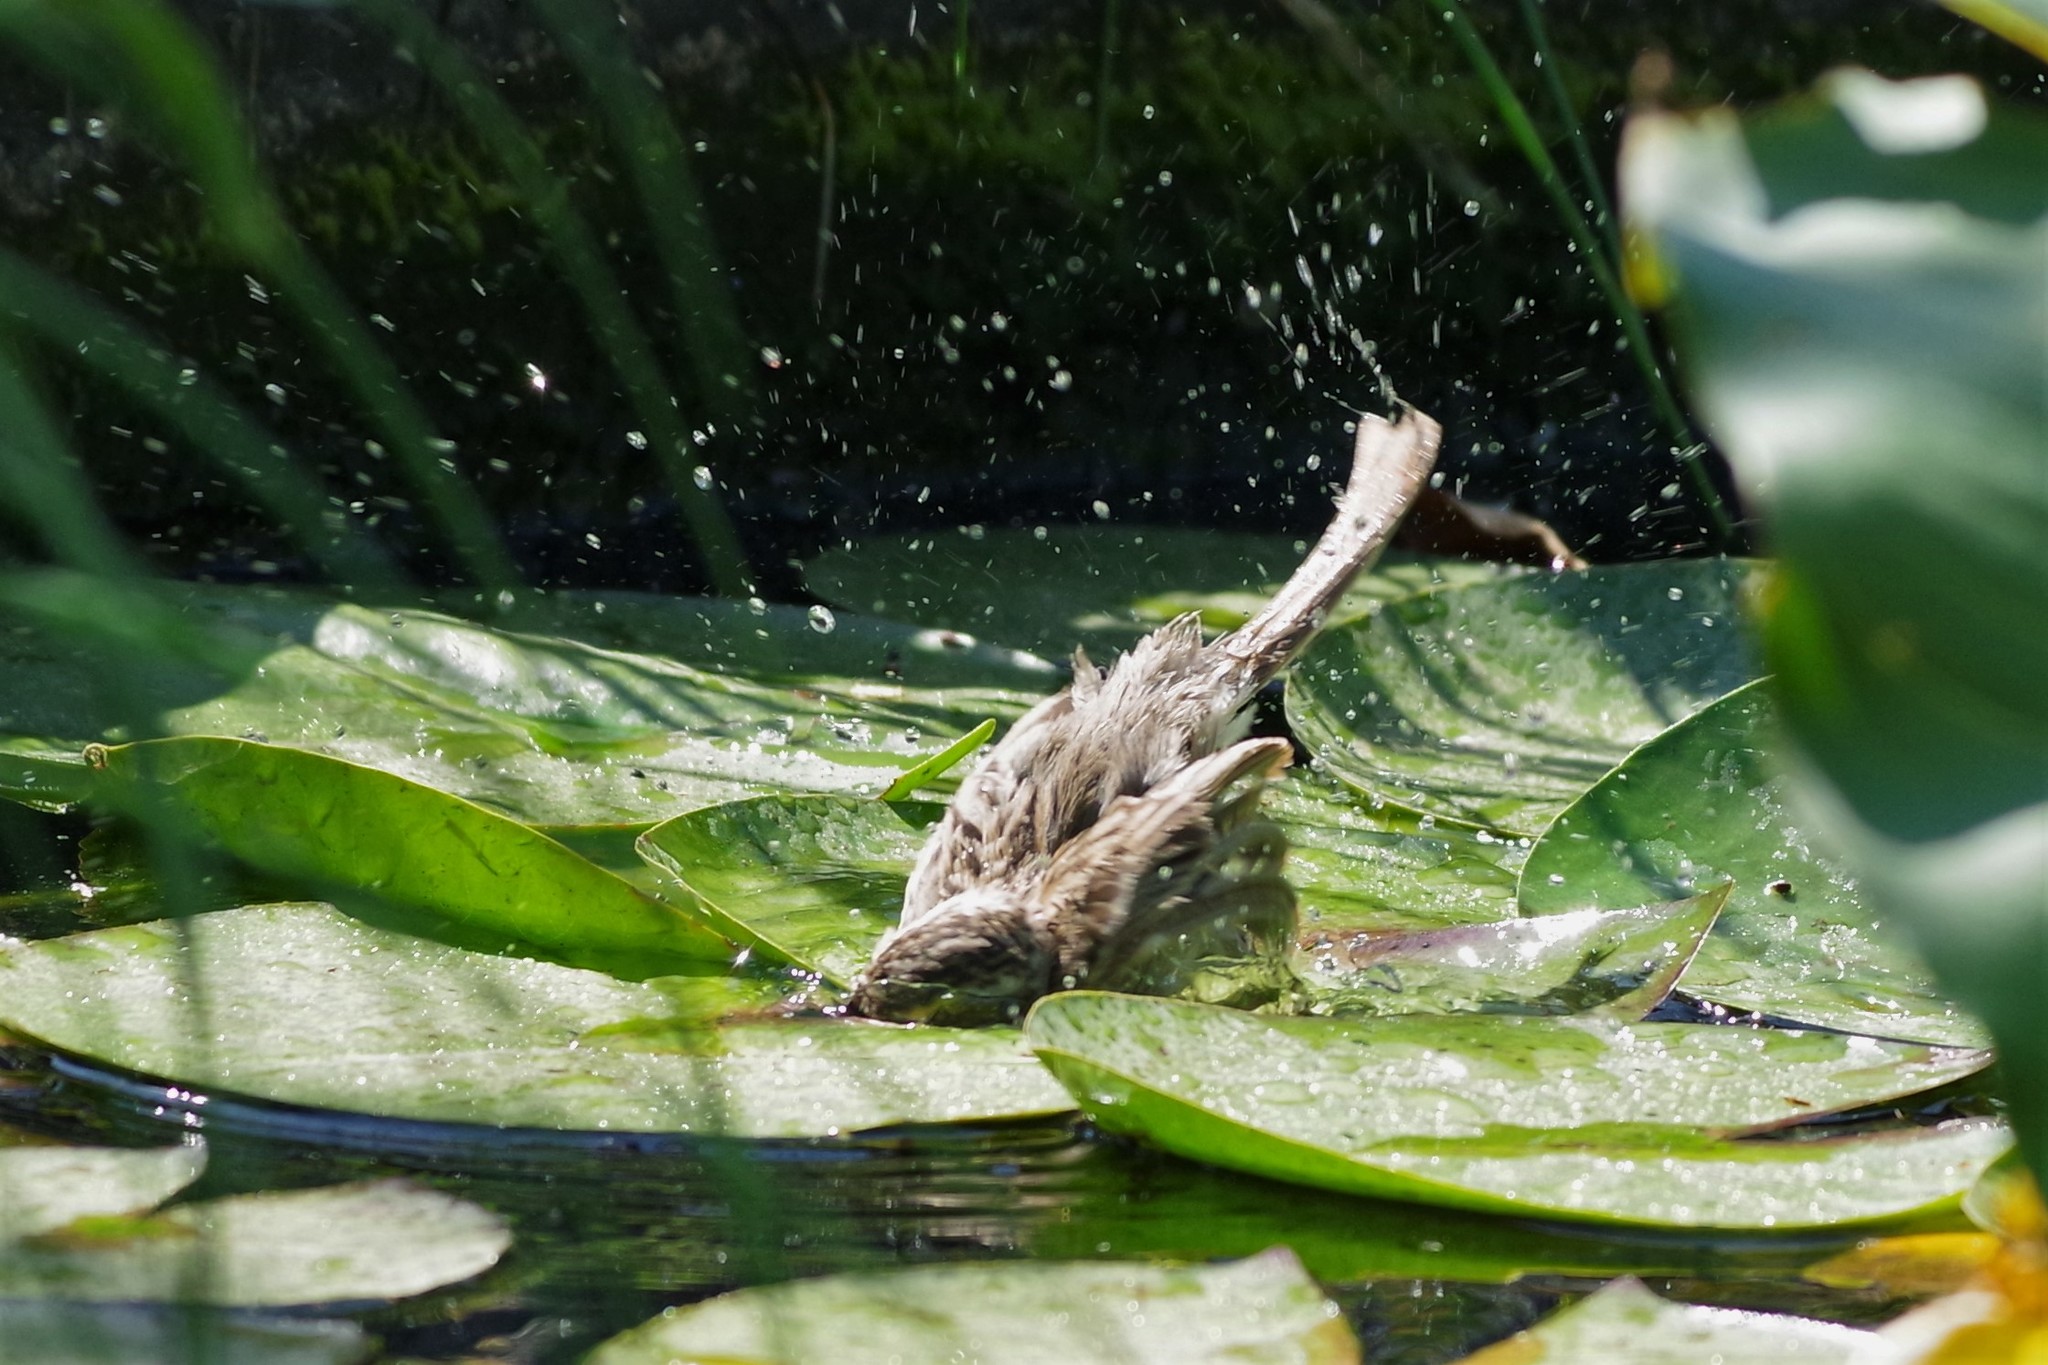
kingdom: Animalia
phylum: Chordata
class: Aves
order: Passeriformes
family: Passerellidae
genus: Spizella
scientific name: Spizella pallida
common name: Clay-colored sparrow
